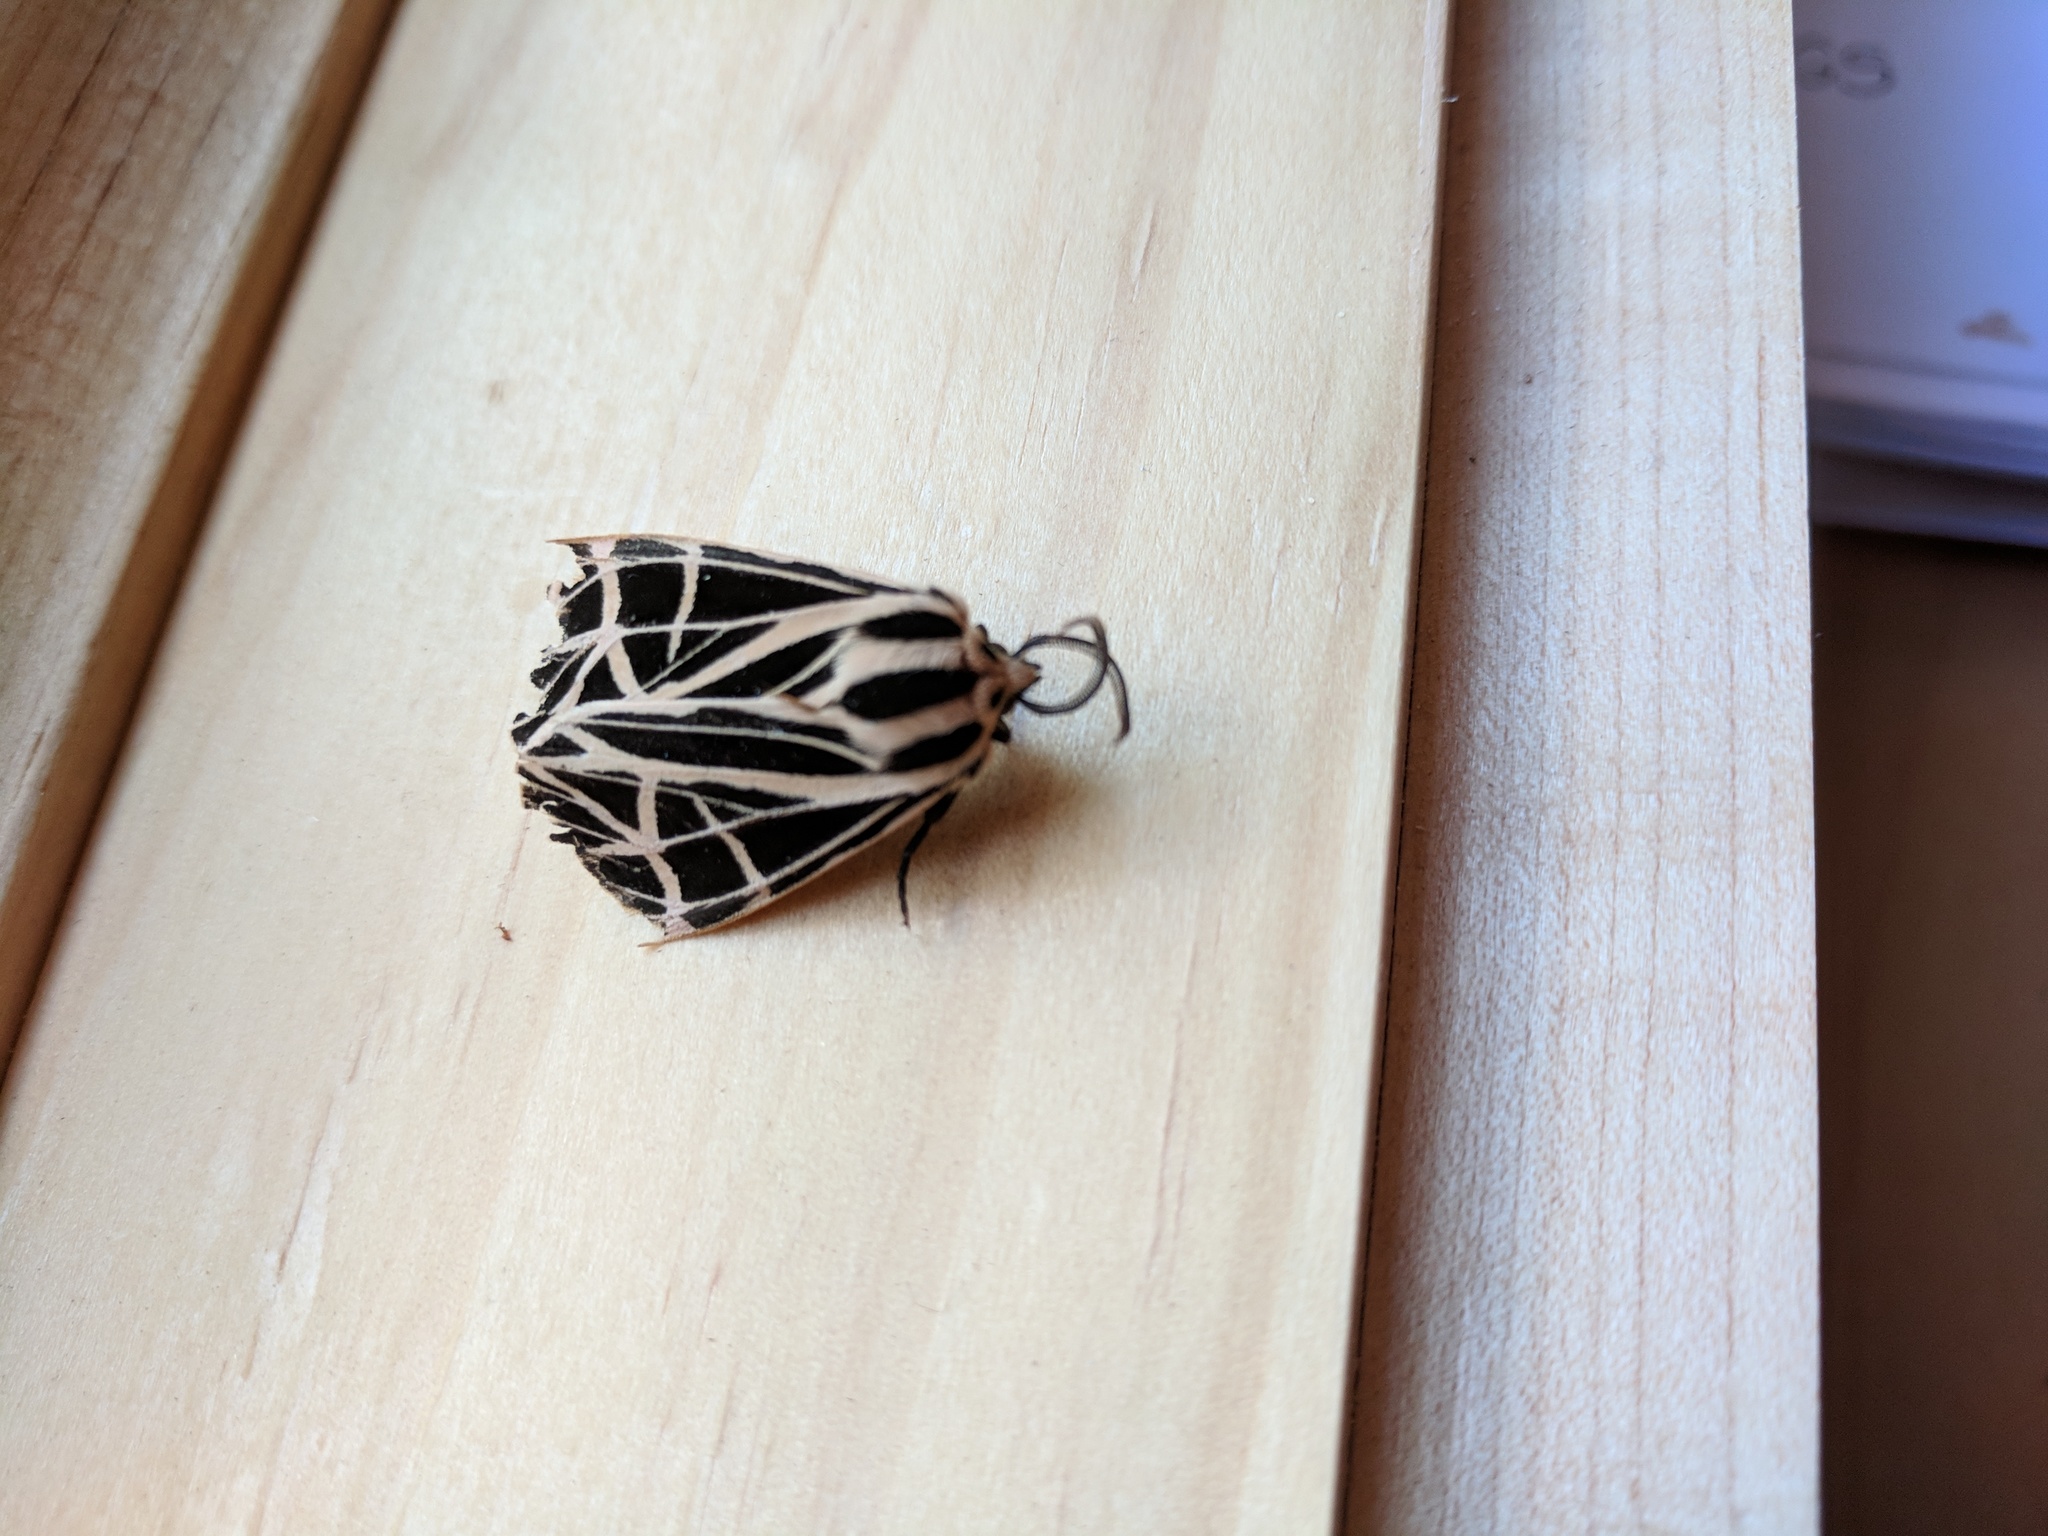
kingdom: Animalia
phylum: Arthropoda
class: Insecta
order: Lepidoptera
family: Erebidae
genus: Grammia
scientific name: Grammia parthenice
